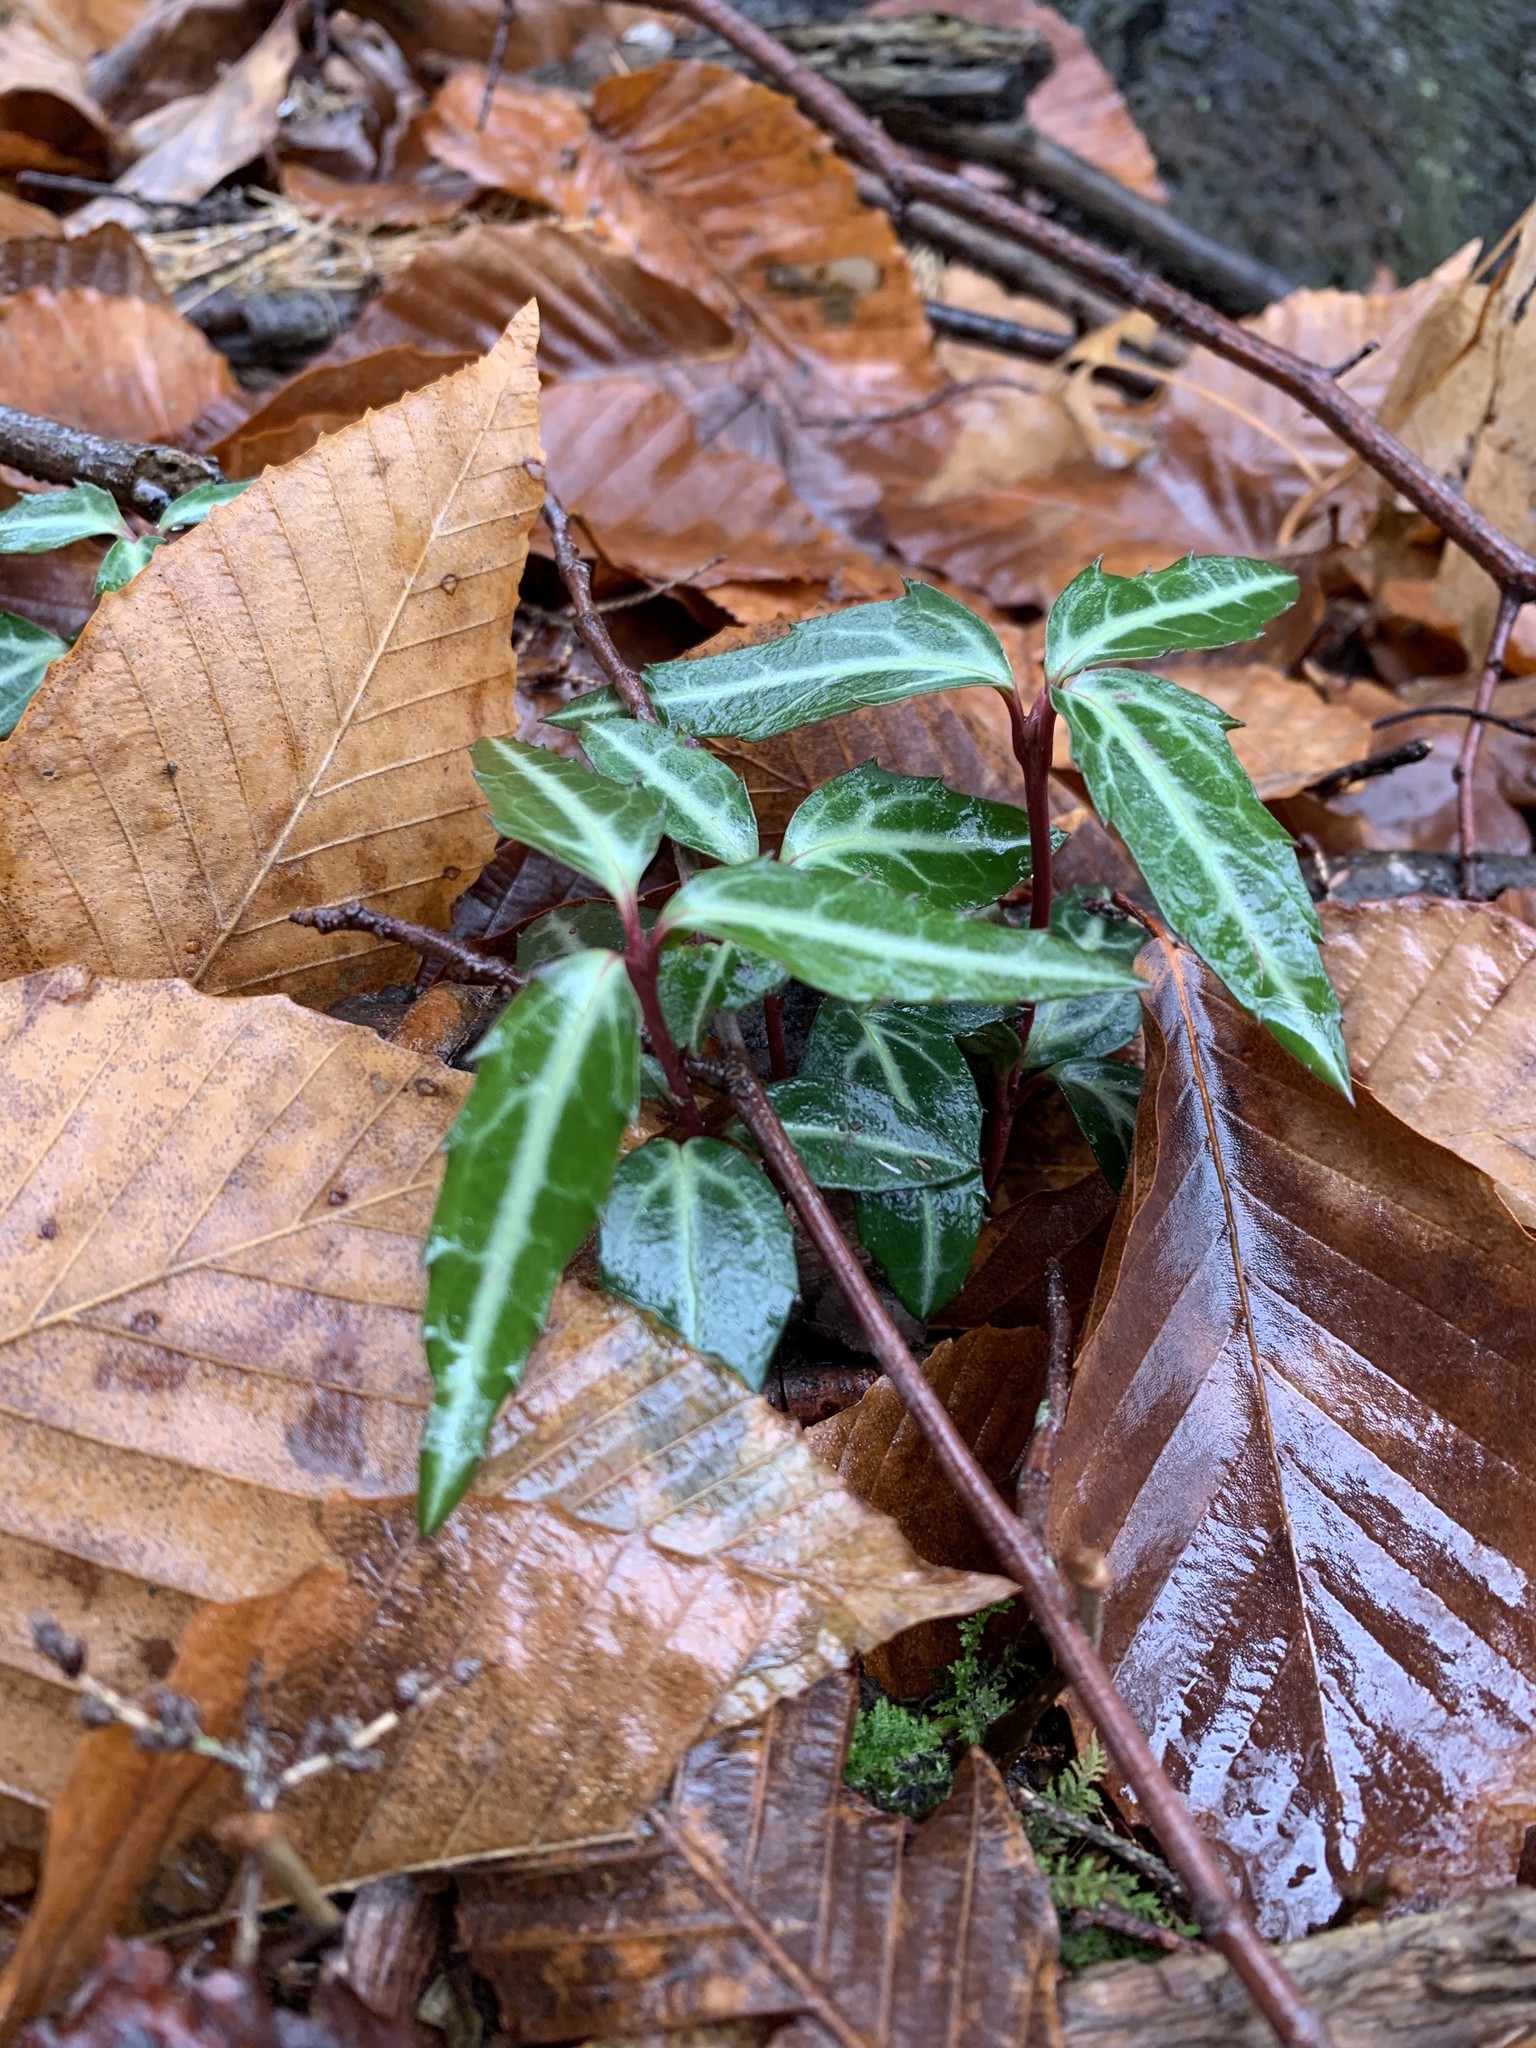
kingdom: Plantae
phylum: Tracheophyta
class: Magnoliopsida
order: Ericales
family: Ericaceae
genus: Chimaphila
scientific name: Chimaphila maculata
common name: Spotted pipsissewa
